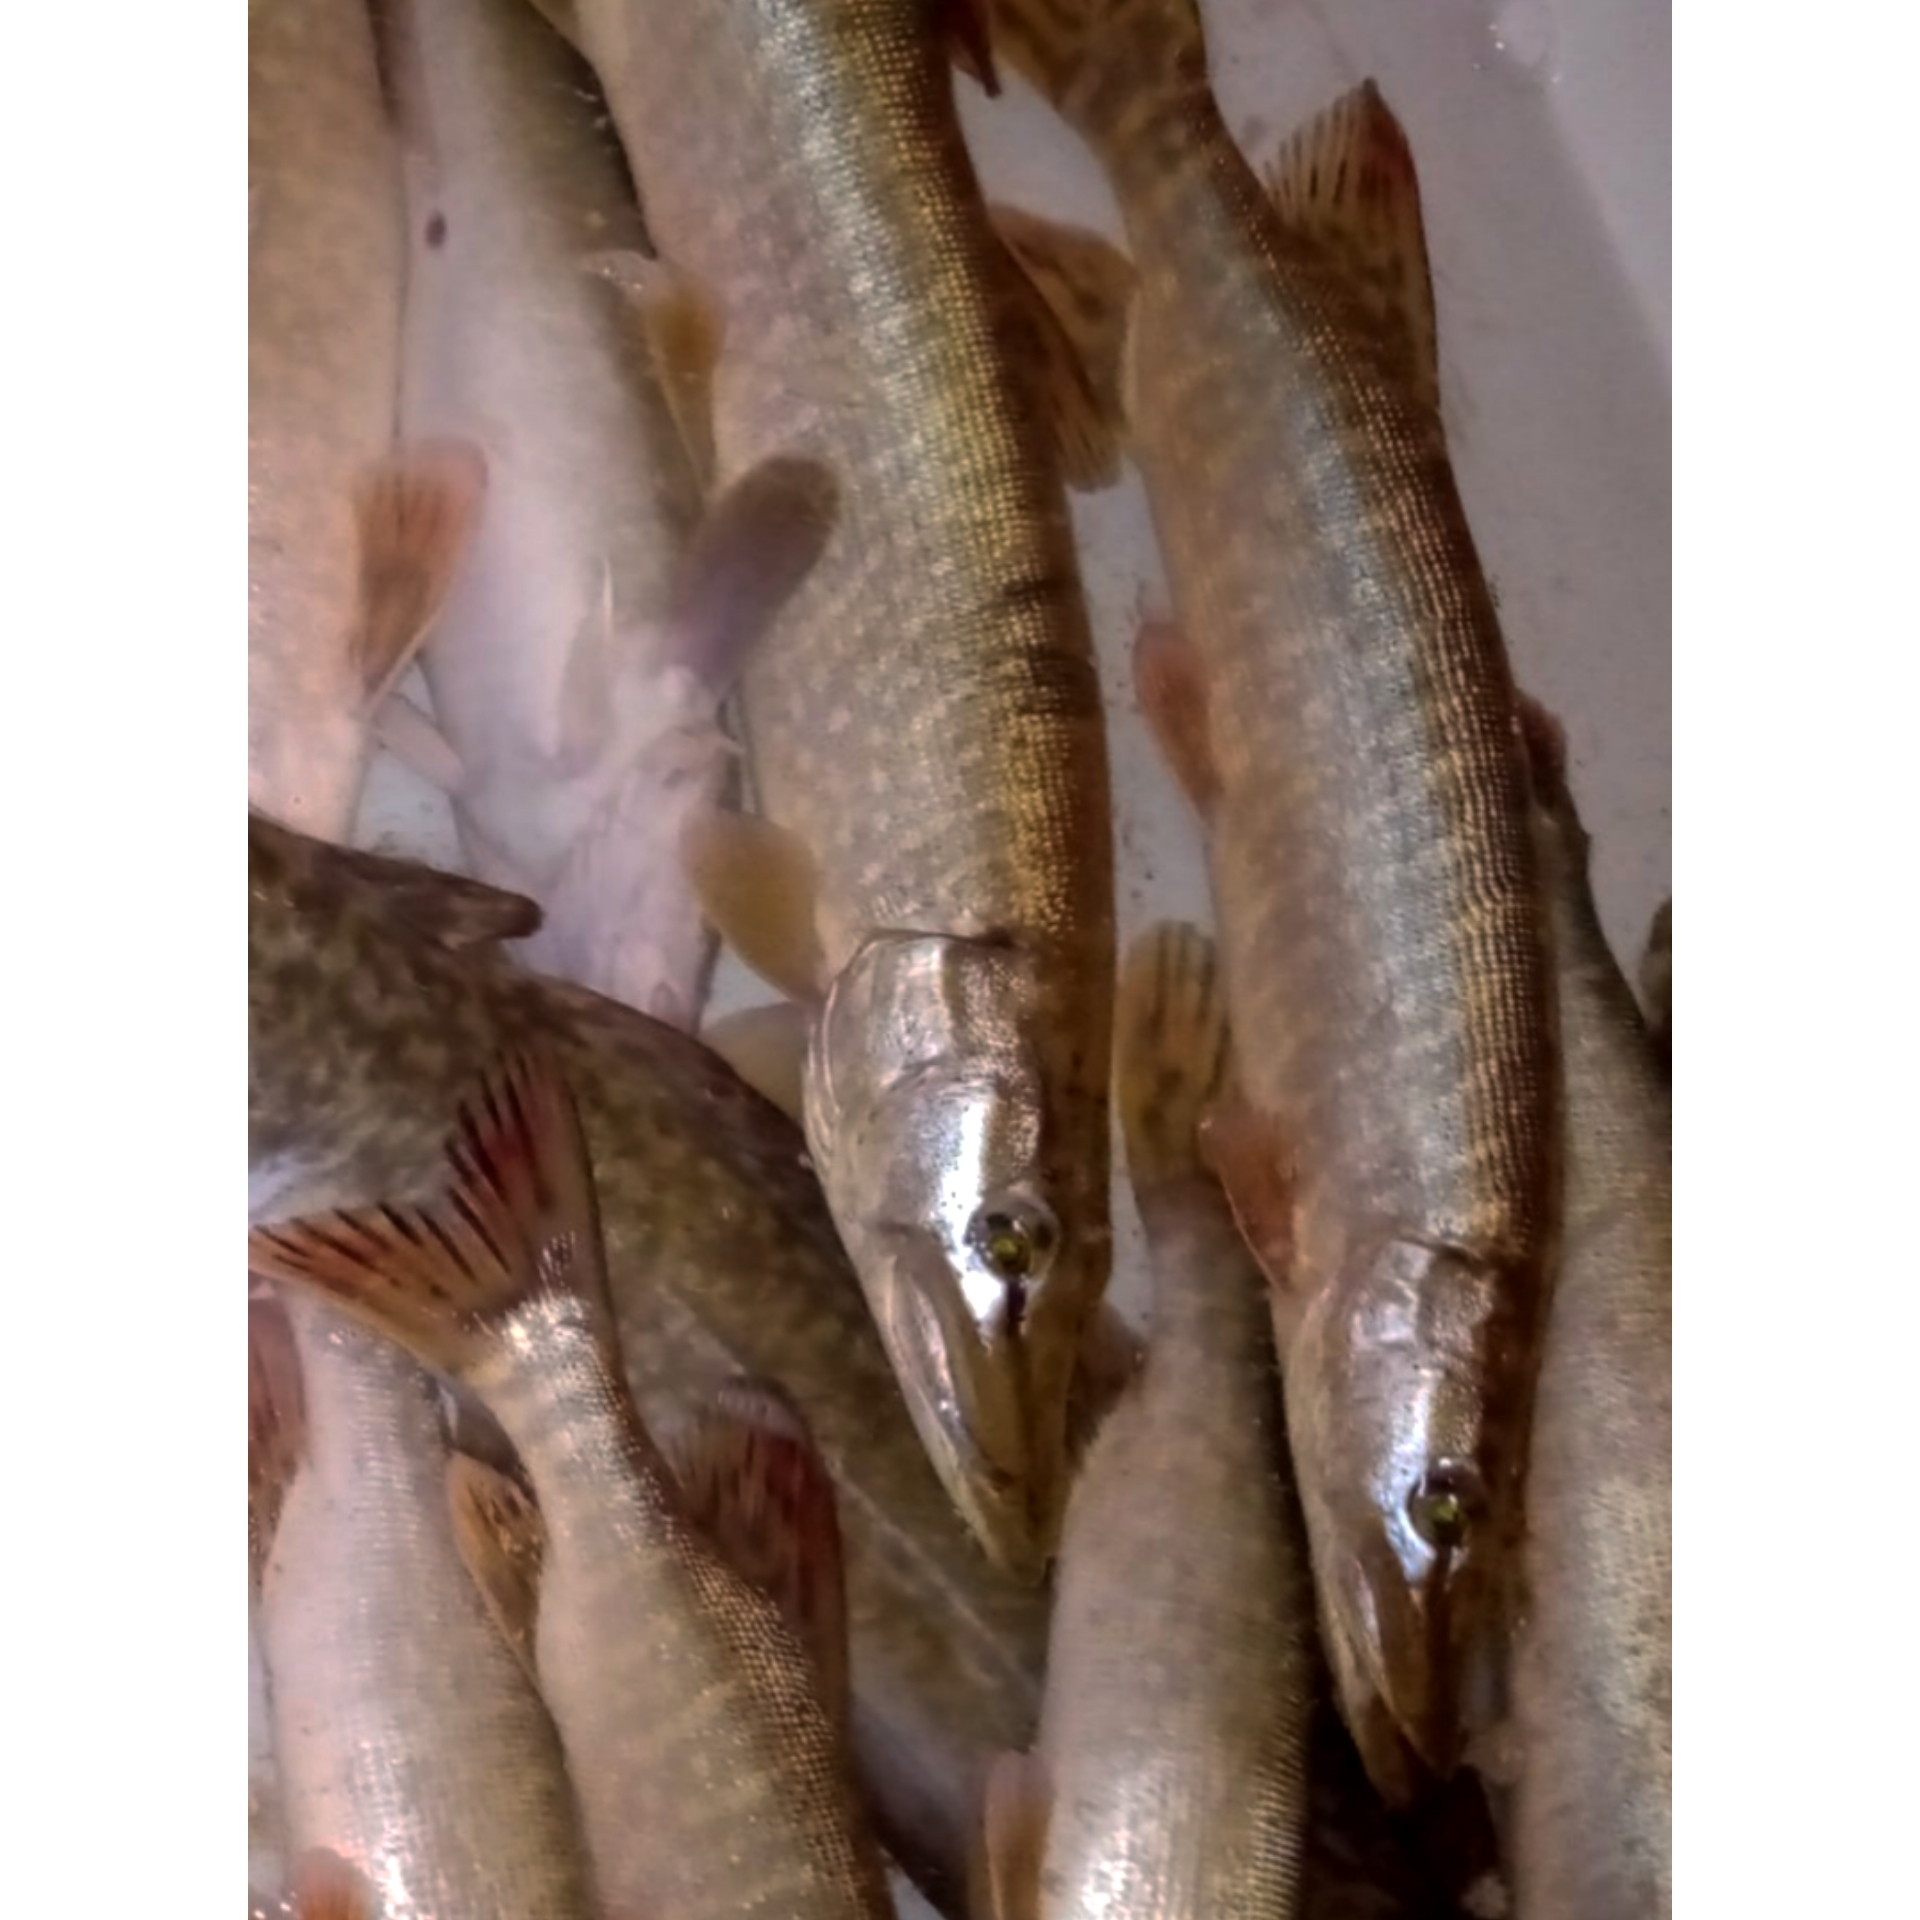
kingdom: Animalia
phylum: Chordata
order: Esociformes
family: Esocidae
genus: Esox
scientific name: Esox lucius
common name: Northern pike
